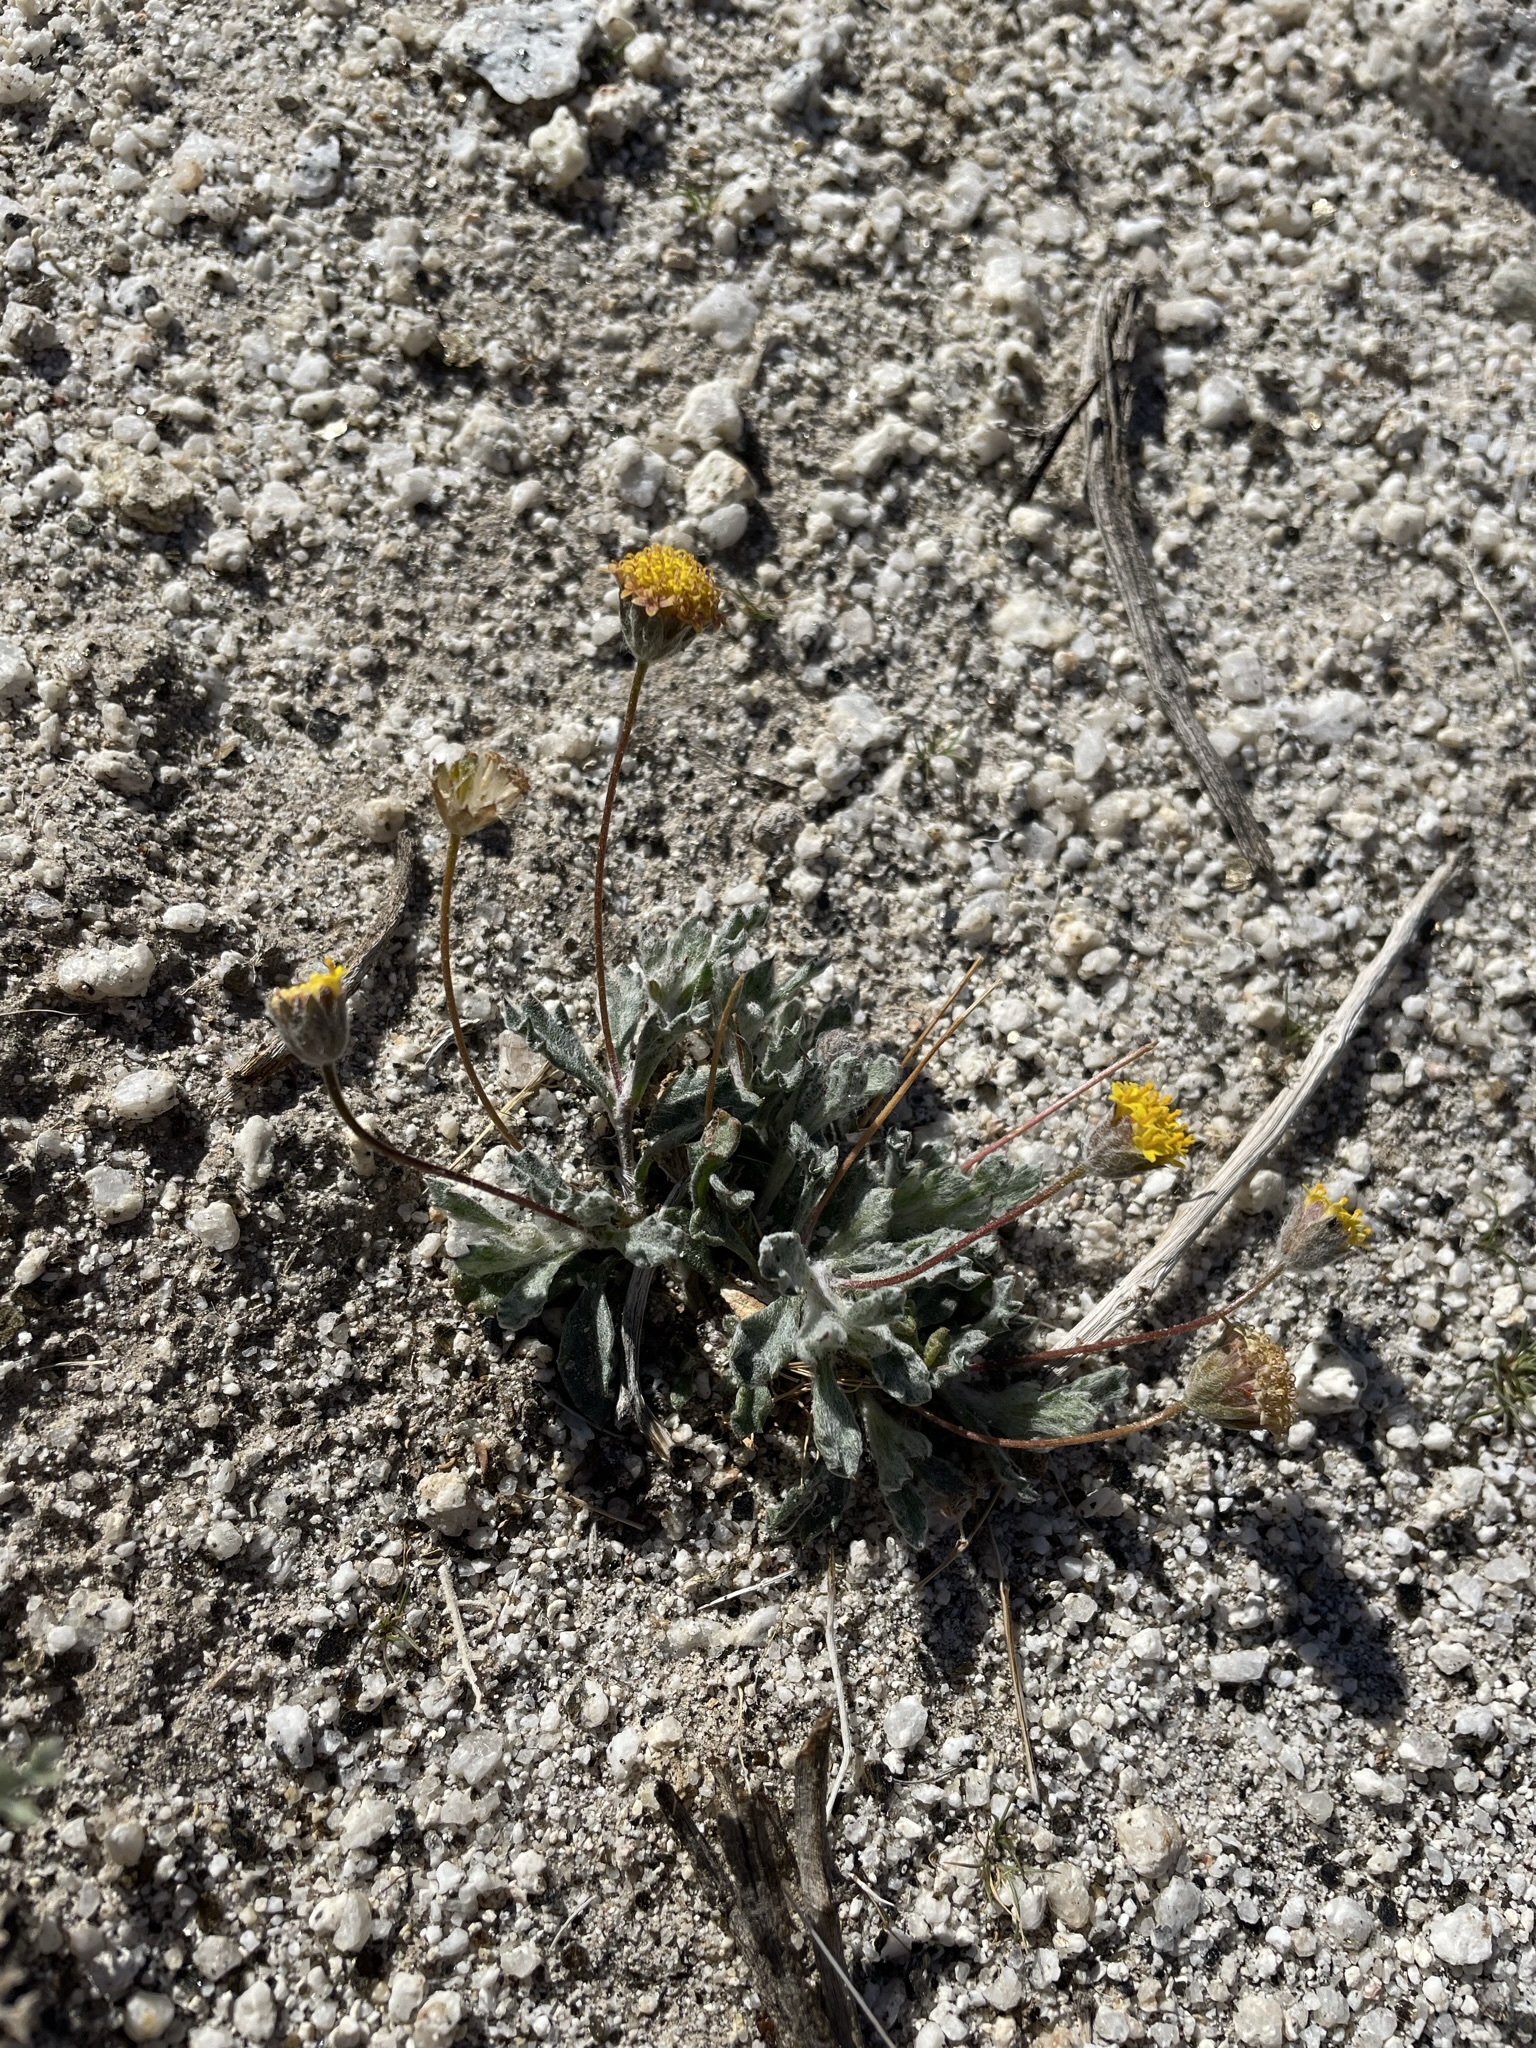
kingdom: Plantae
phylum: Tracheophyta
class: Magnoliopsida
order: Asterales
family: Asteraceae
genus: Trichoptilium
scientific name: Trichoptilium incisum
